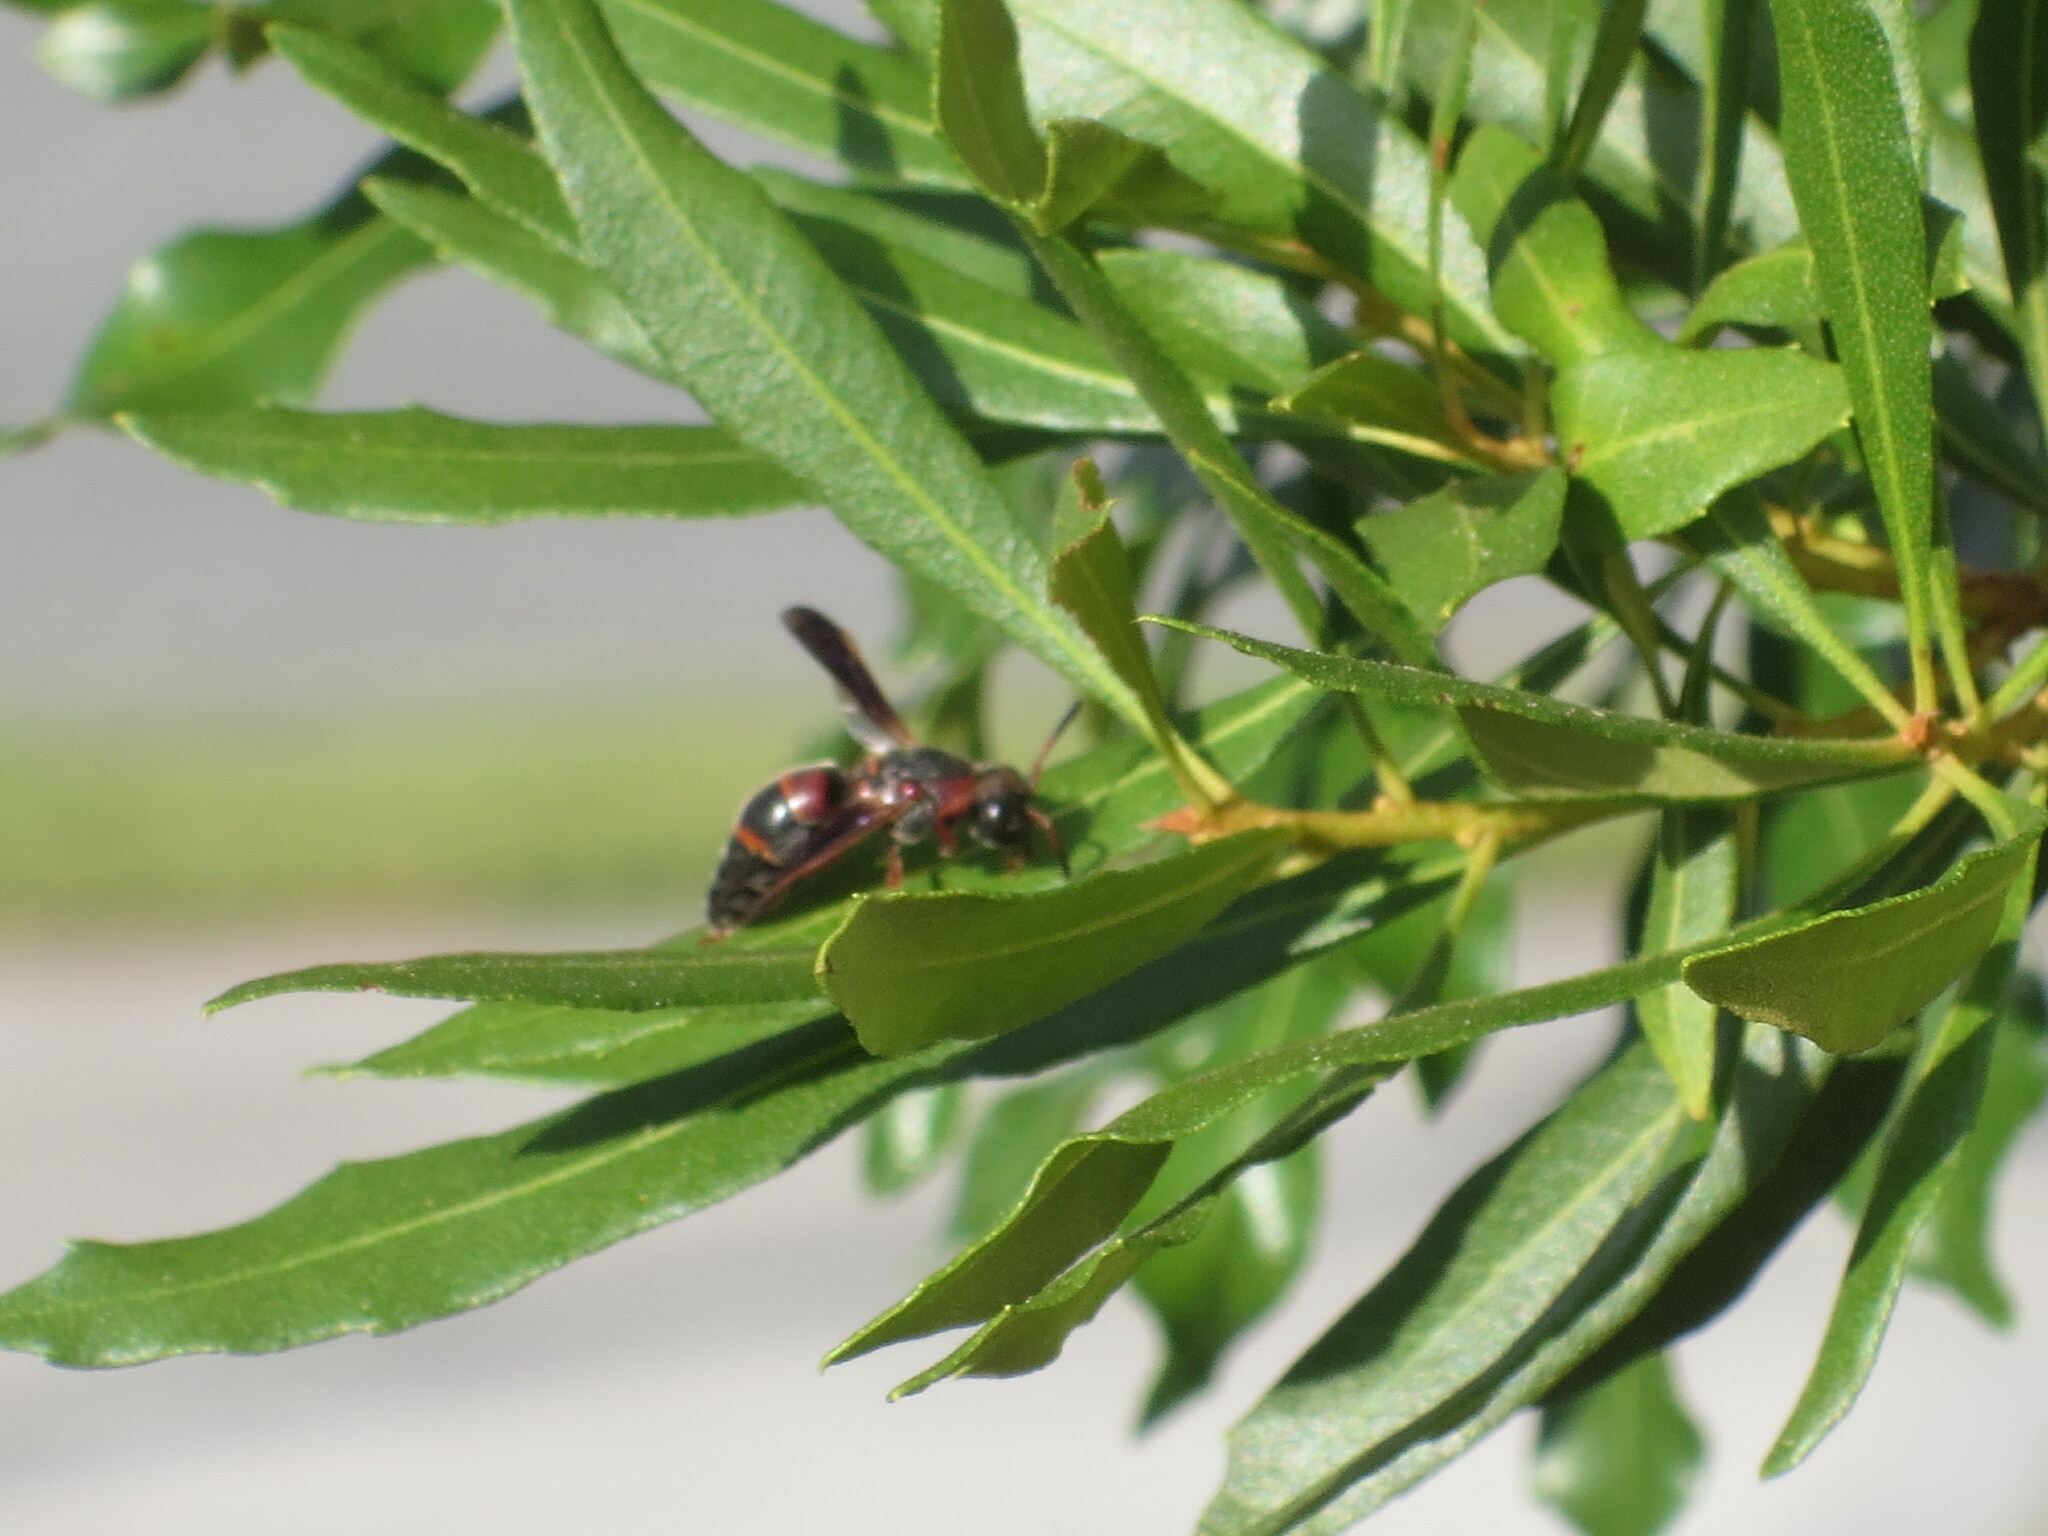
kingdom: Animalia
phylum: Arthropoda
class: Insecta
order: Hymenoptera
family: Eumenidae
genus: Pachodynerus
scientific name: Pachodynerus erynnis
